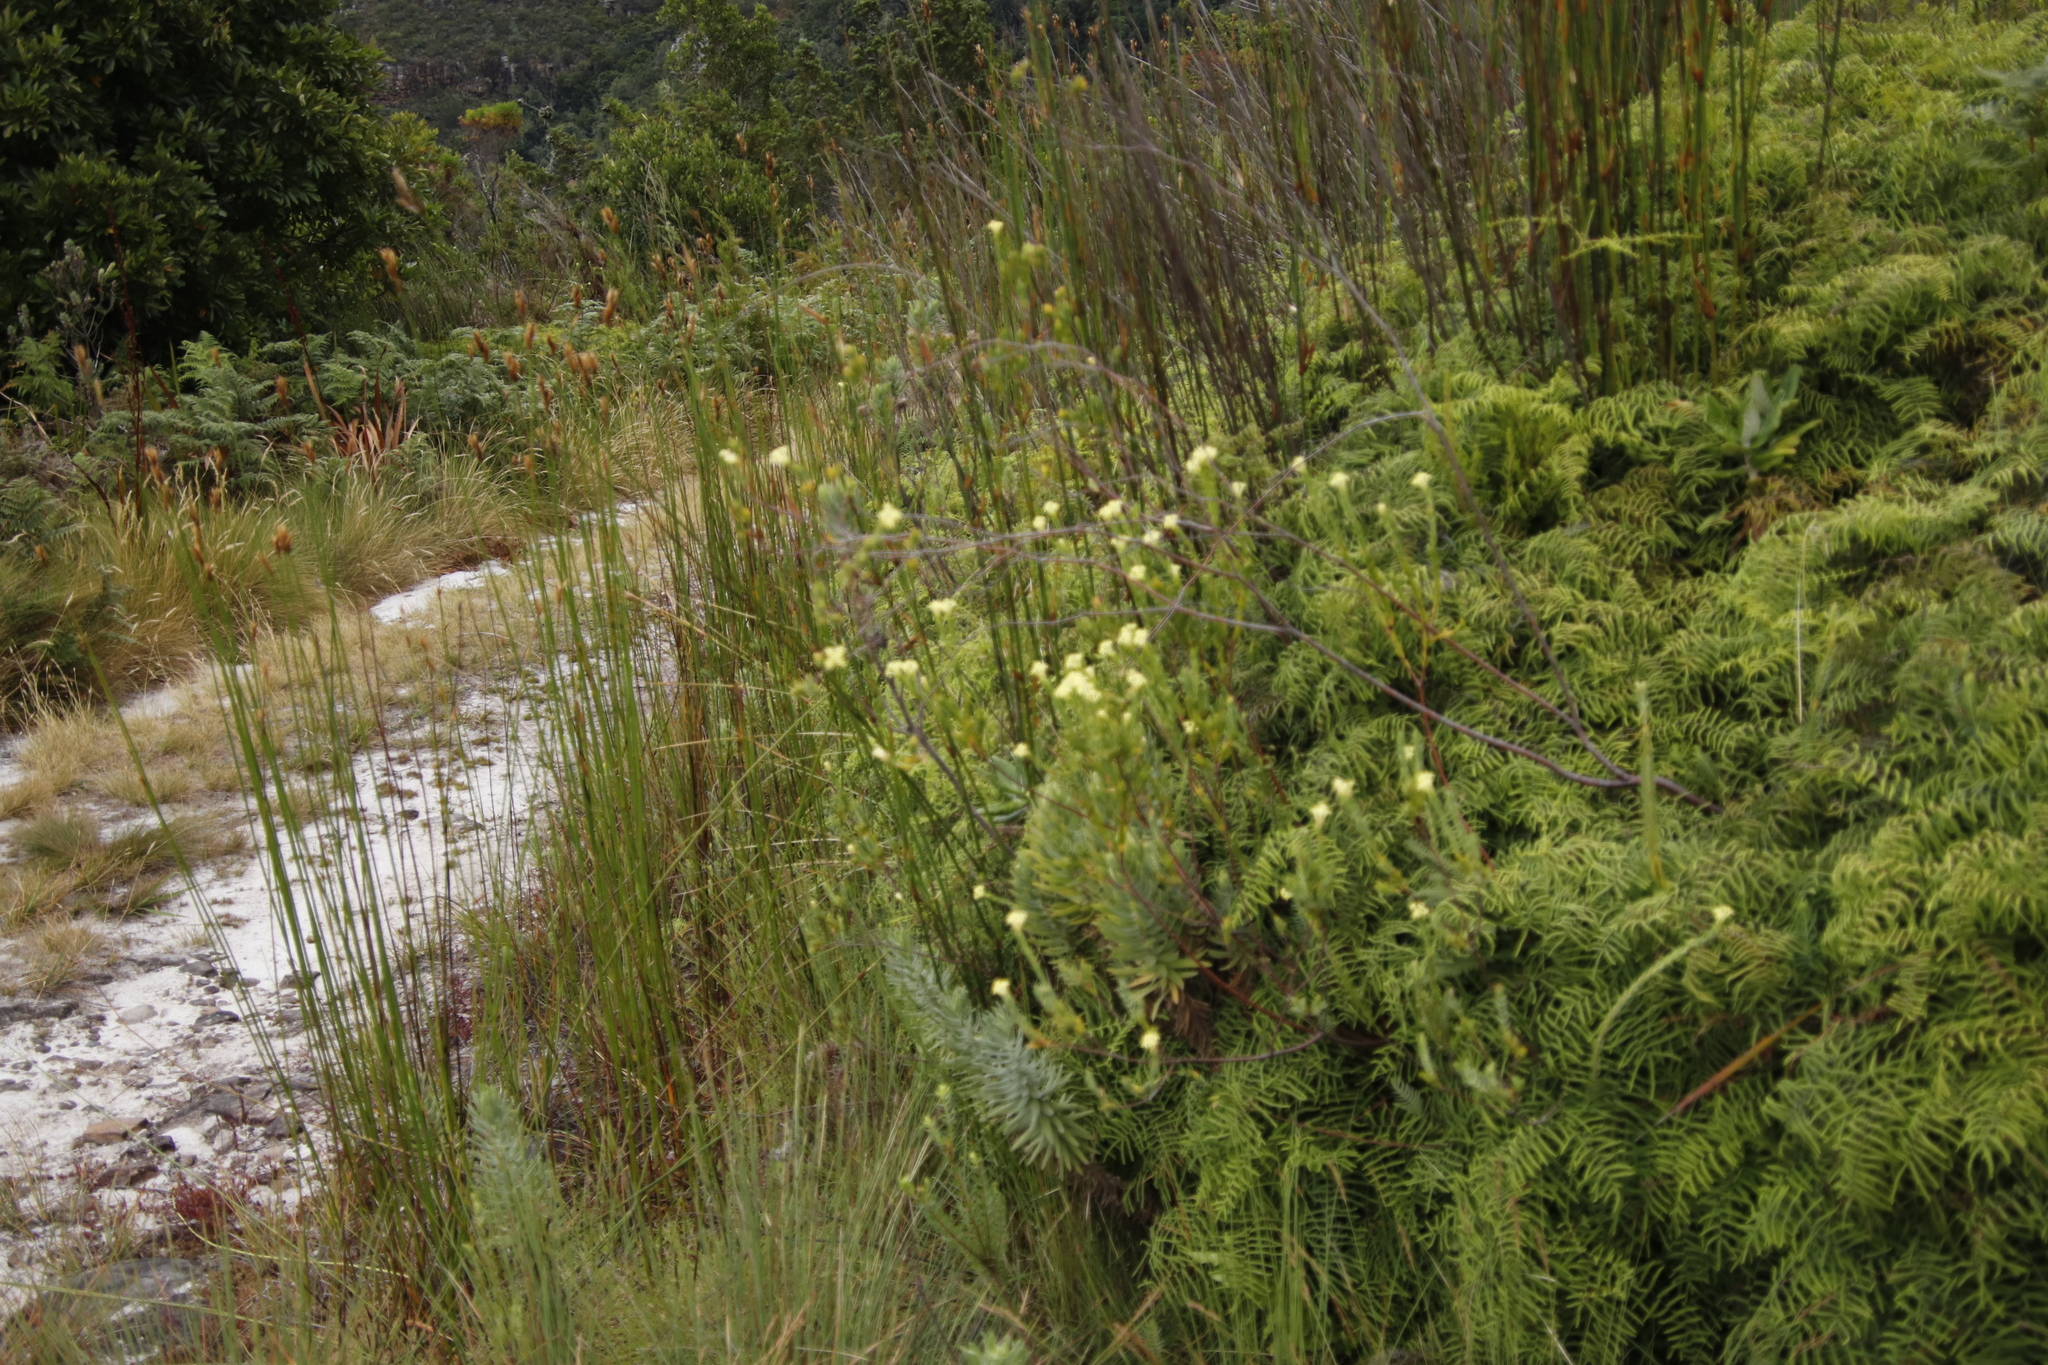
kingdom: Plantae
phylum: Tracheophyta
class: Magnoliopsida
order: Malvales
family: Thymelaeaceae
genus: Gnidia
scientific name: Gnidia oppositifolia
